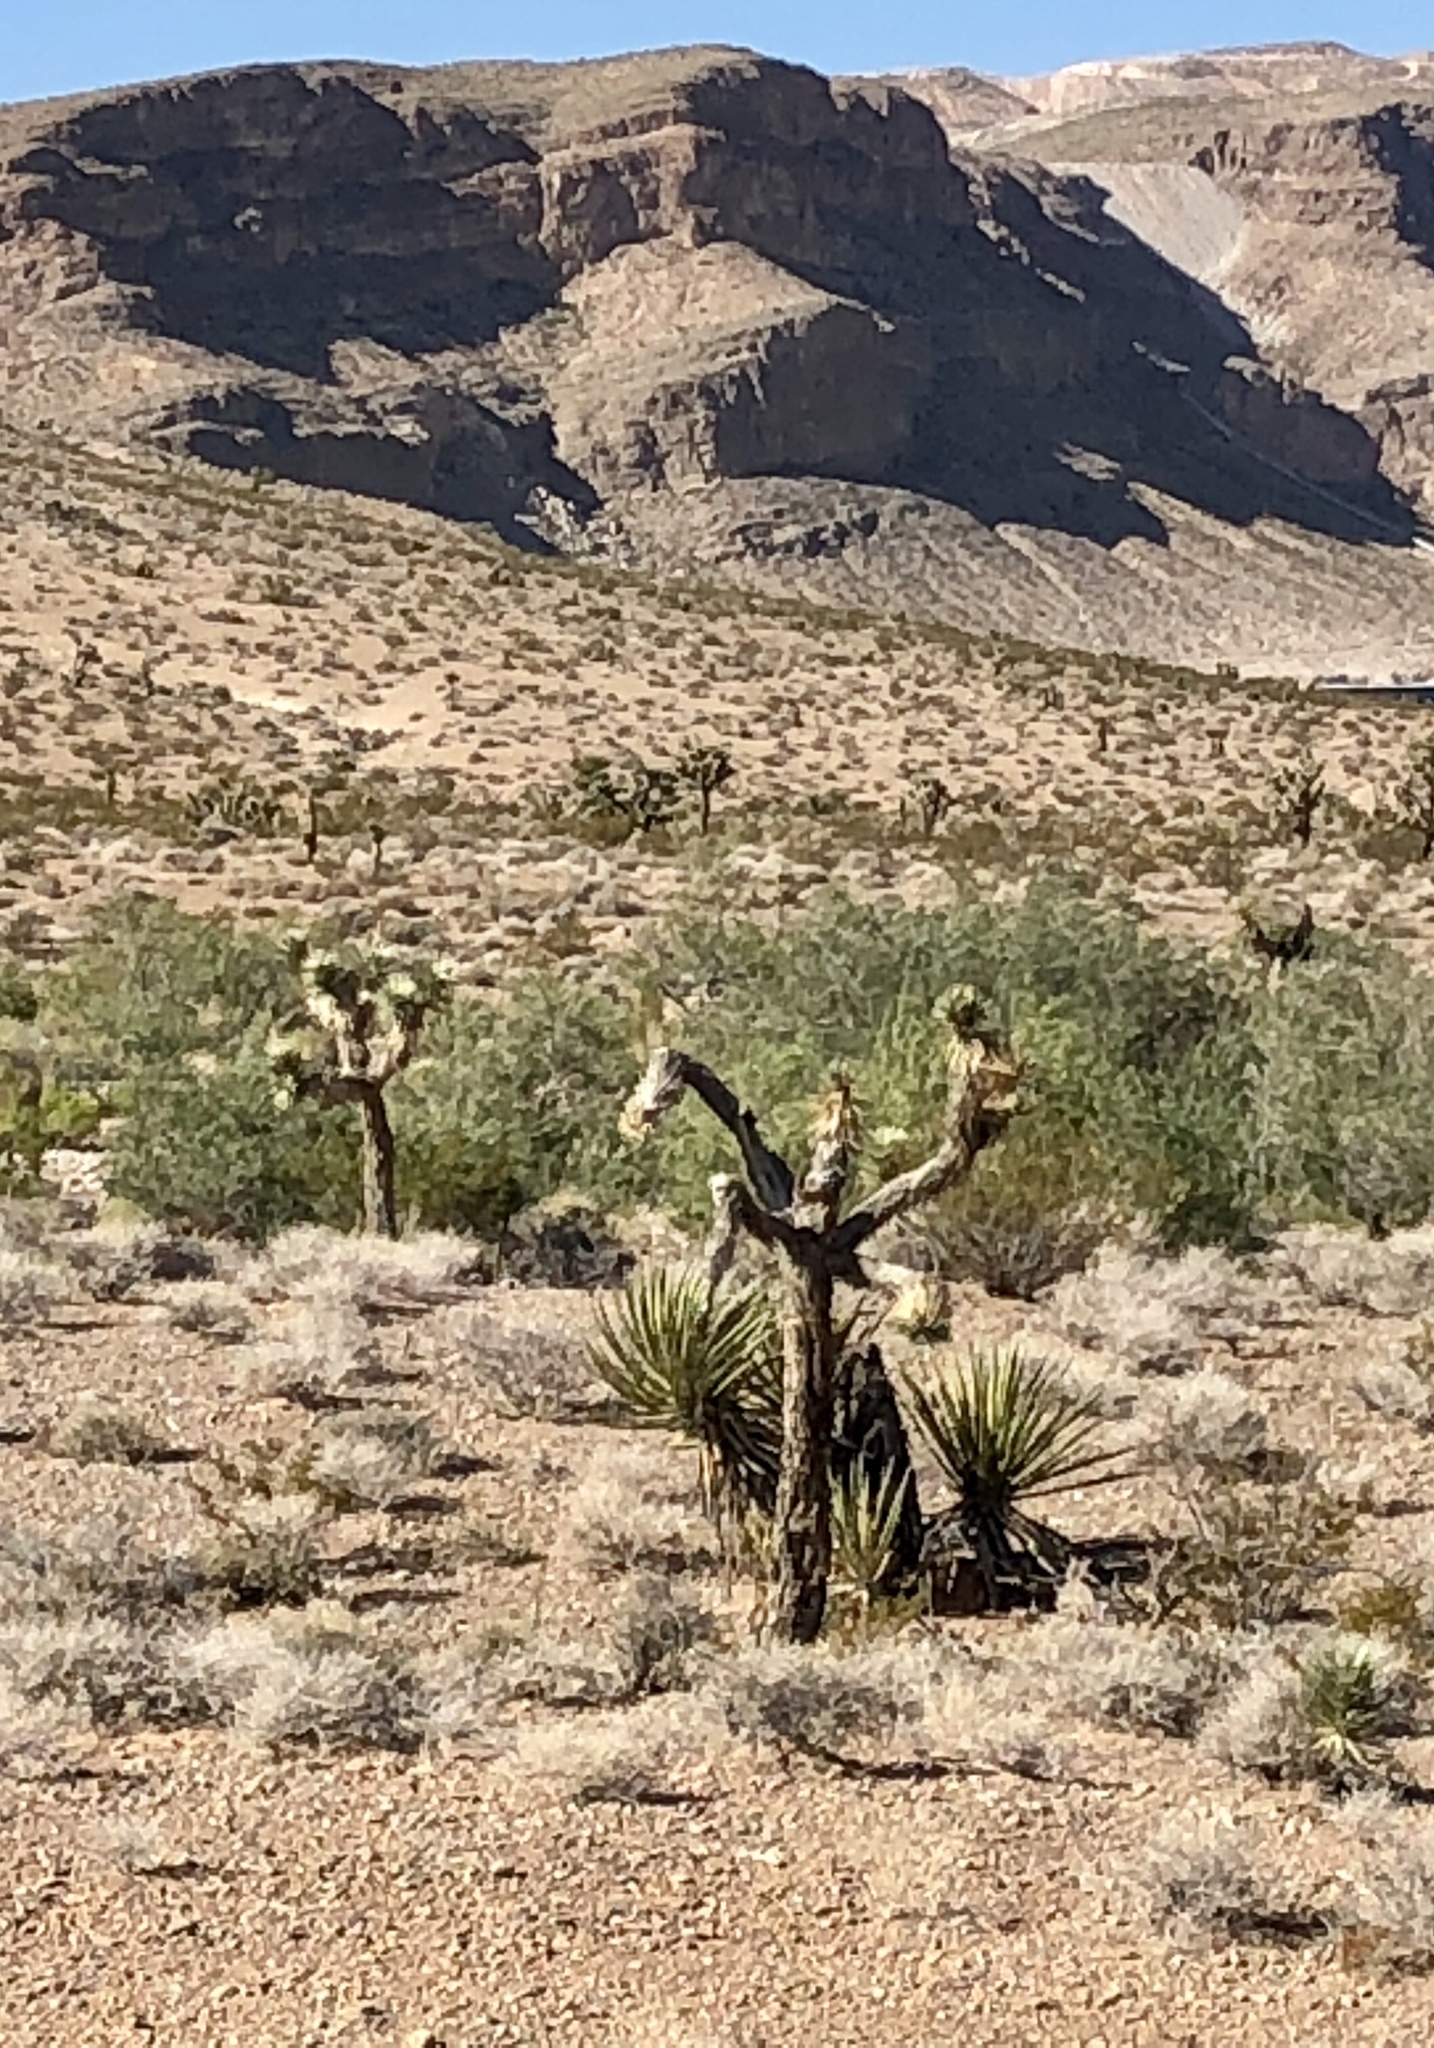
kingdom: Plantae
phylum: Tracheophyta
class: Liliopsida
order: Asparagales
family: Asparagaceae
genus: Yucca
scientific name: Yucca brevifolia
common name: Joshua tree
